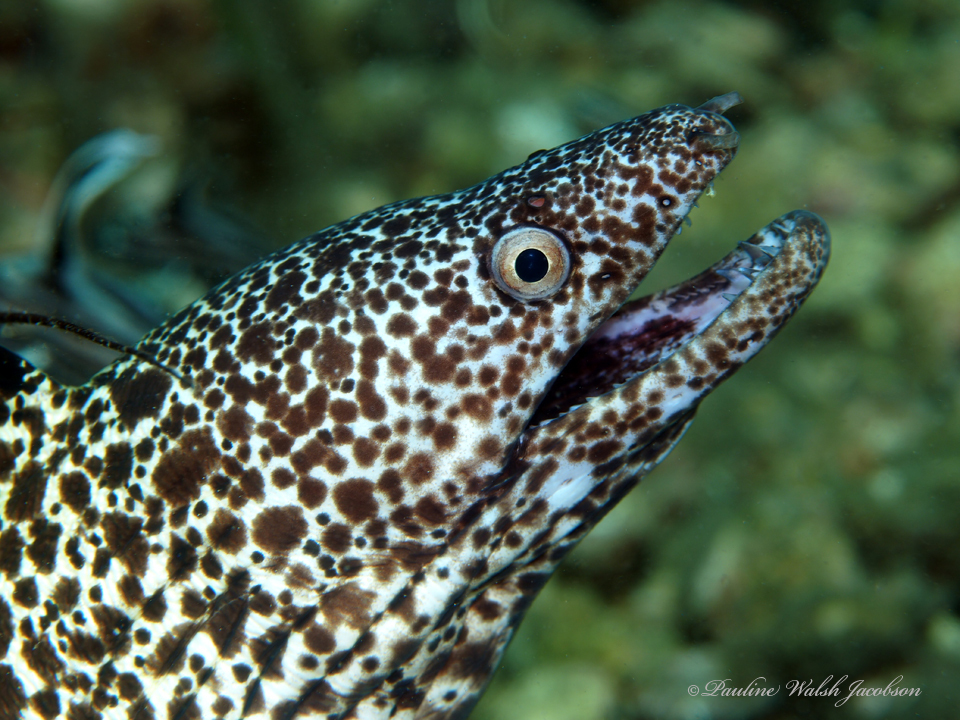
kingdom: Animalia
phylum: Chordata
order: Anguilliformes
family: Muraenidae
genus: Gymnothorax
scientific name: Gymnothorax moringa
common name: Spotted moray
